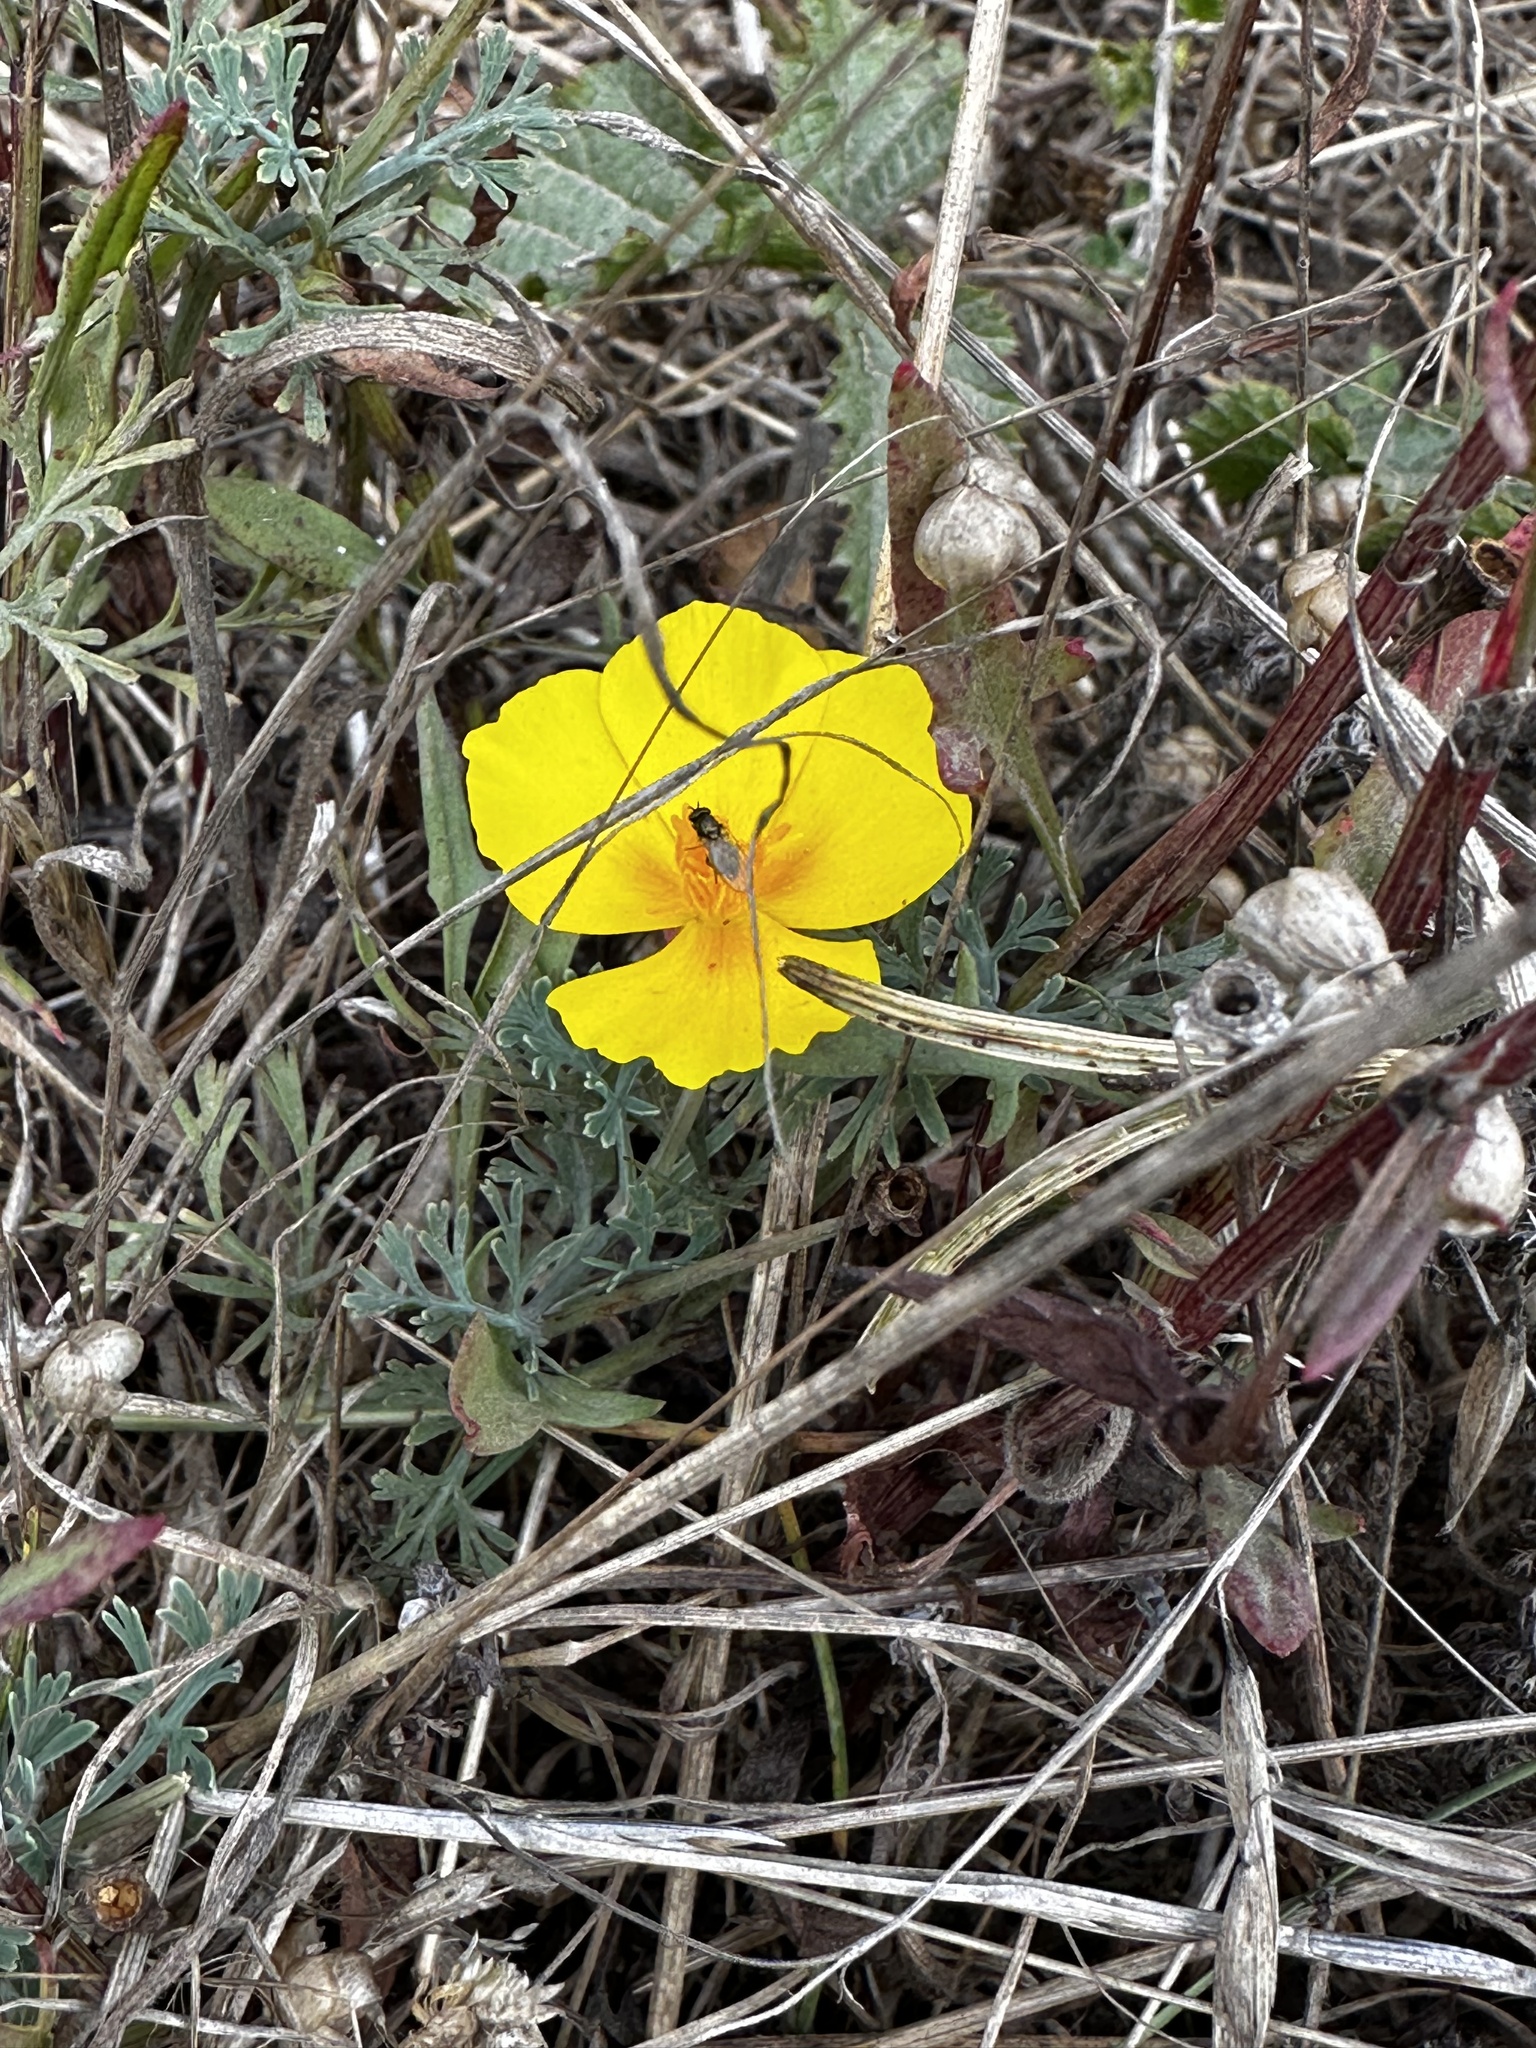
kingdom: Plantae
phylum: Tracheophyta
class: Magnoliopsida
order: Ranunculales
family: Papaveraceae
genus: Eschscholzia
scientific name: Eschscholzia californica
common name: California poppy
